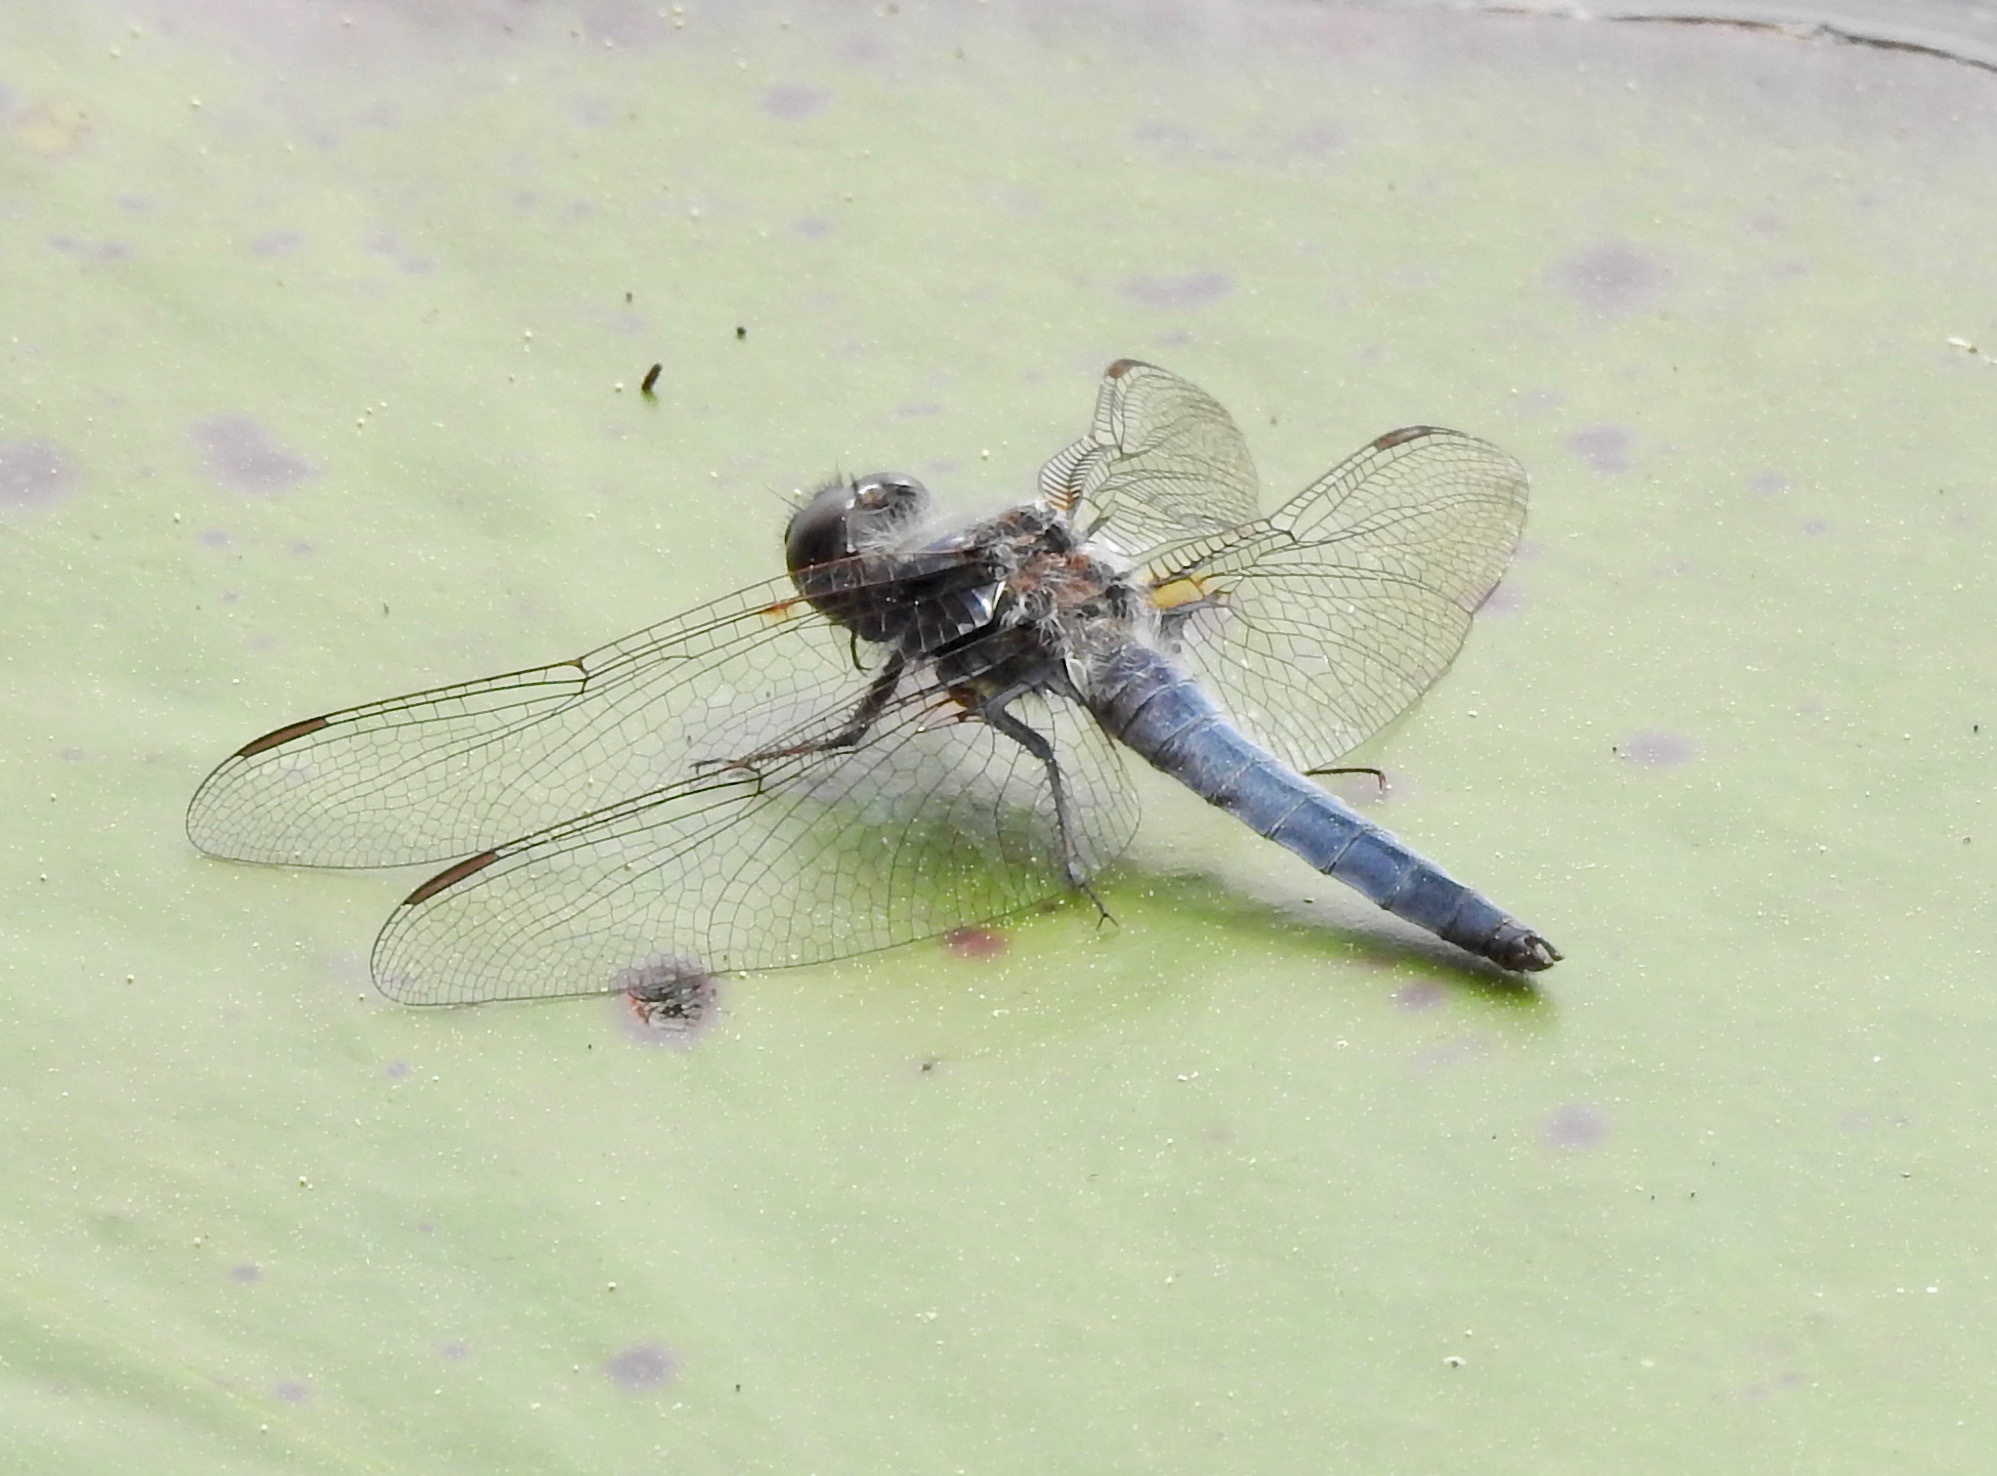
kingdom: Animalia
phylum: Arthropoda
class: Insecta
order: Odonata
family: Libellulidae
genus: Ladona
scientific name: Ladona deplanata
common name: Blue corporal
